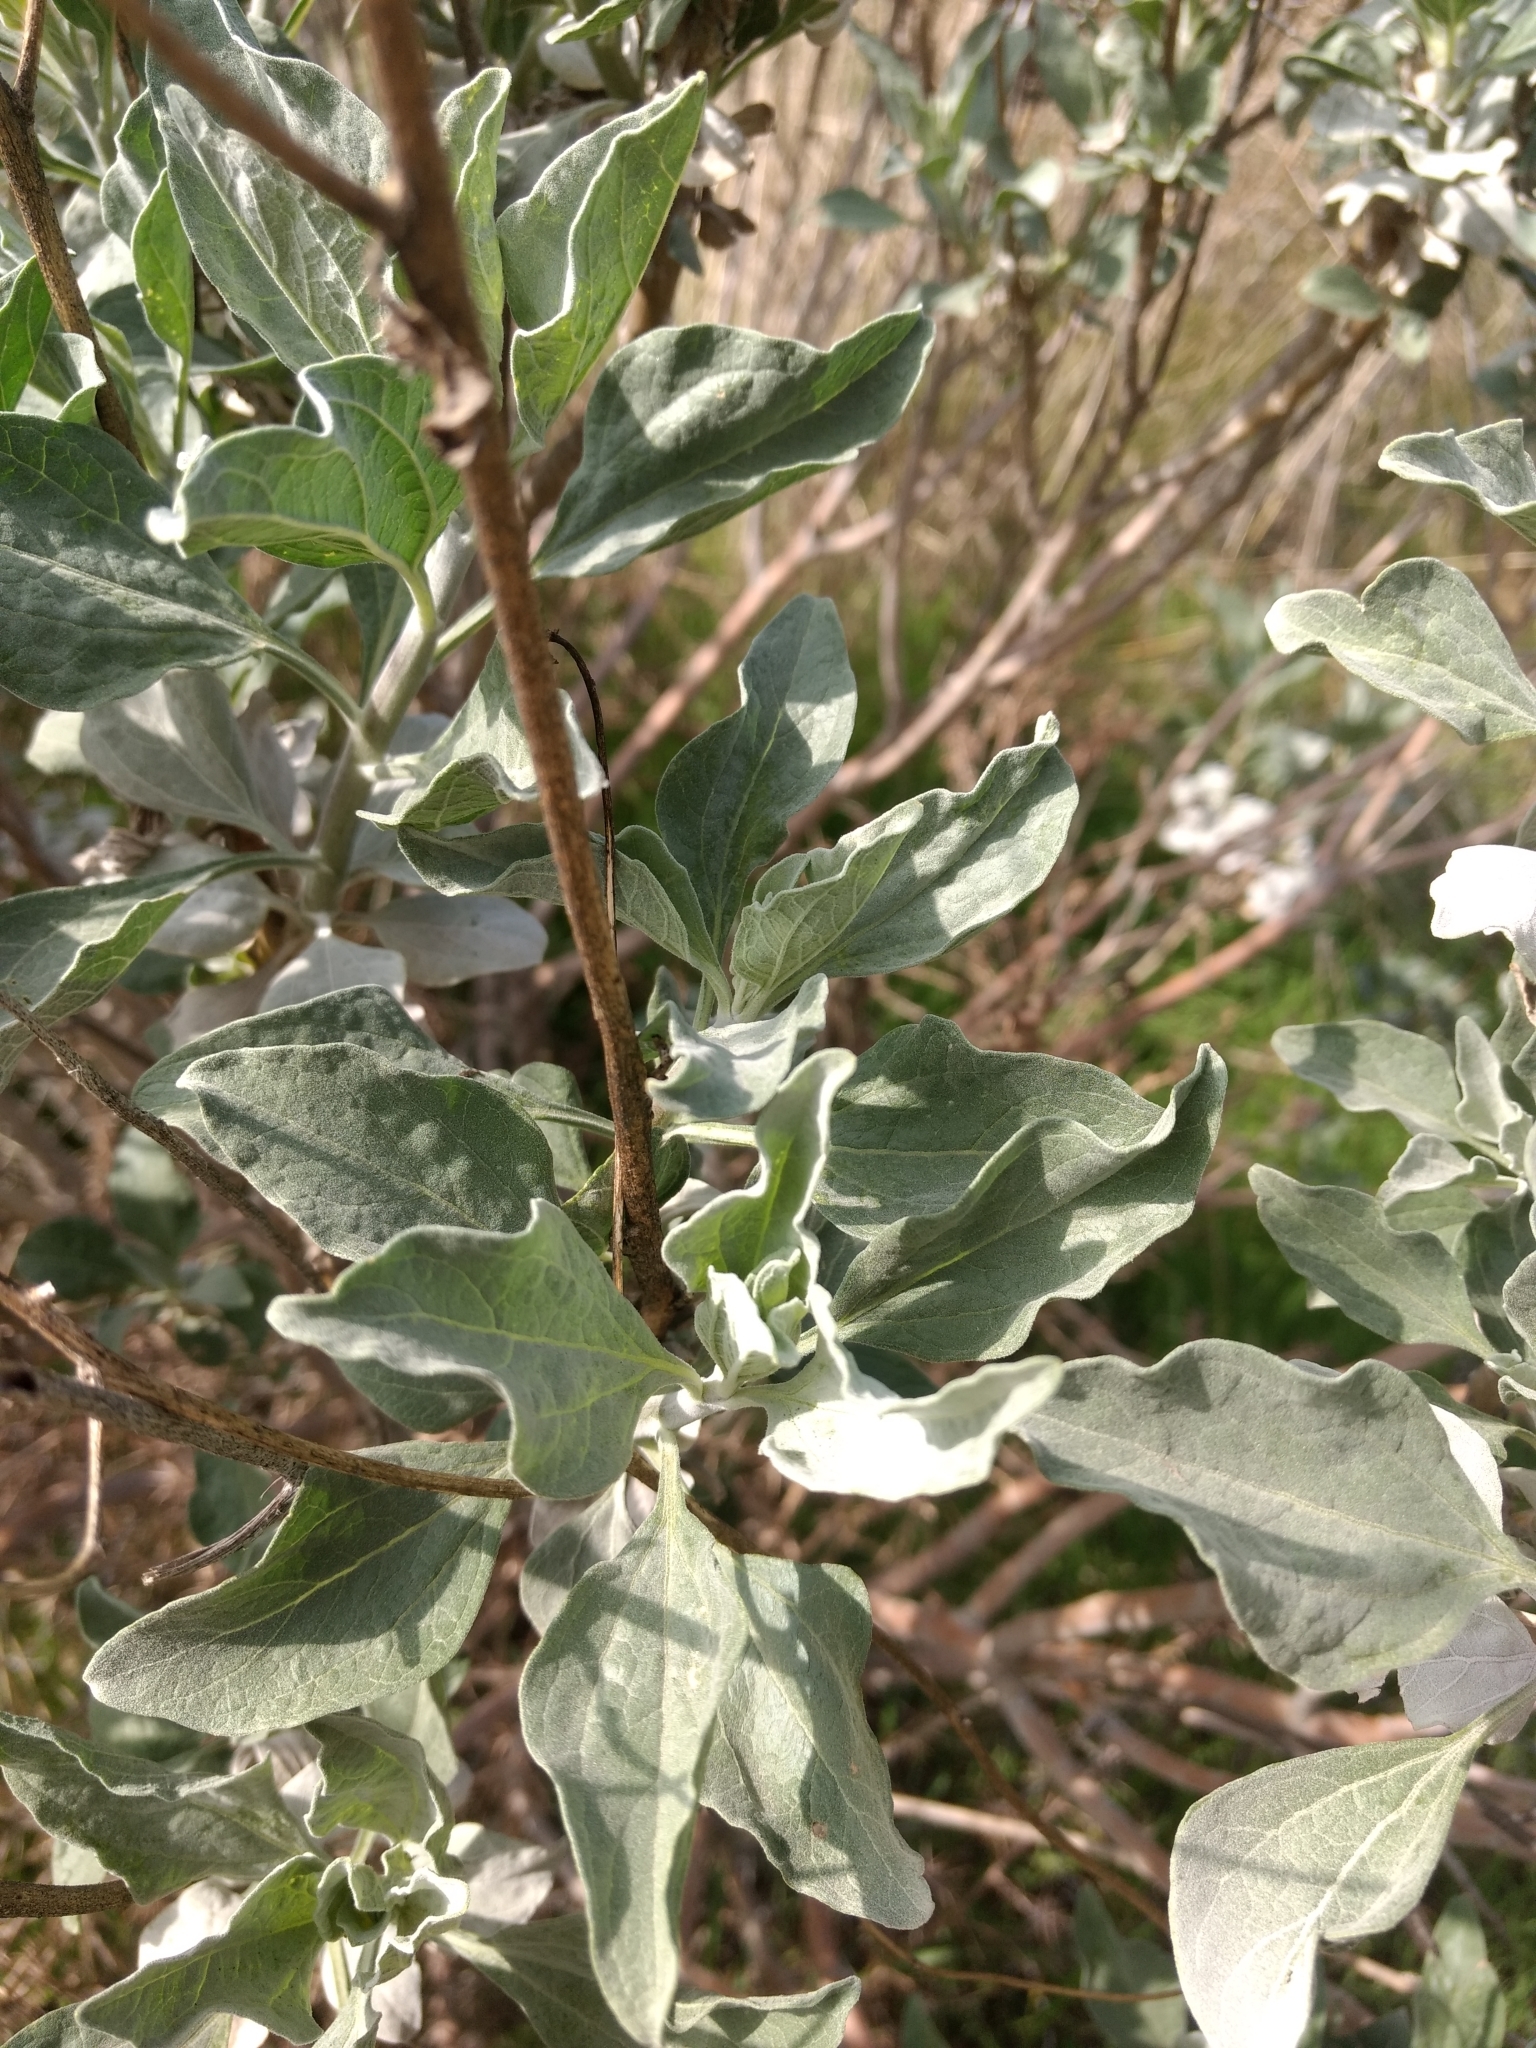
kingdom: Plantae
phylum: Tracheophyta
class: Magnoliopsida
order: Asterales
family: Asteraceae
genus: Encelia
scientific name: Encelia farinosa
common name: Brittlebush
